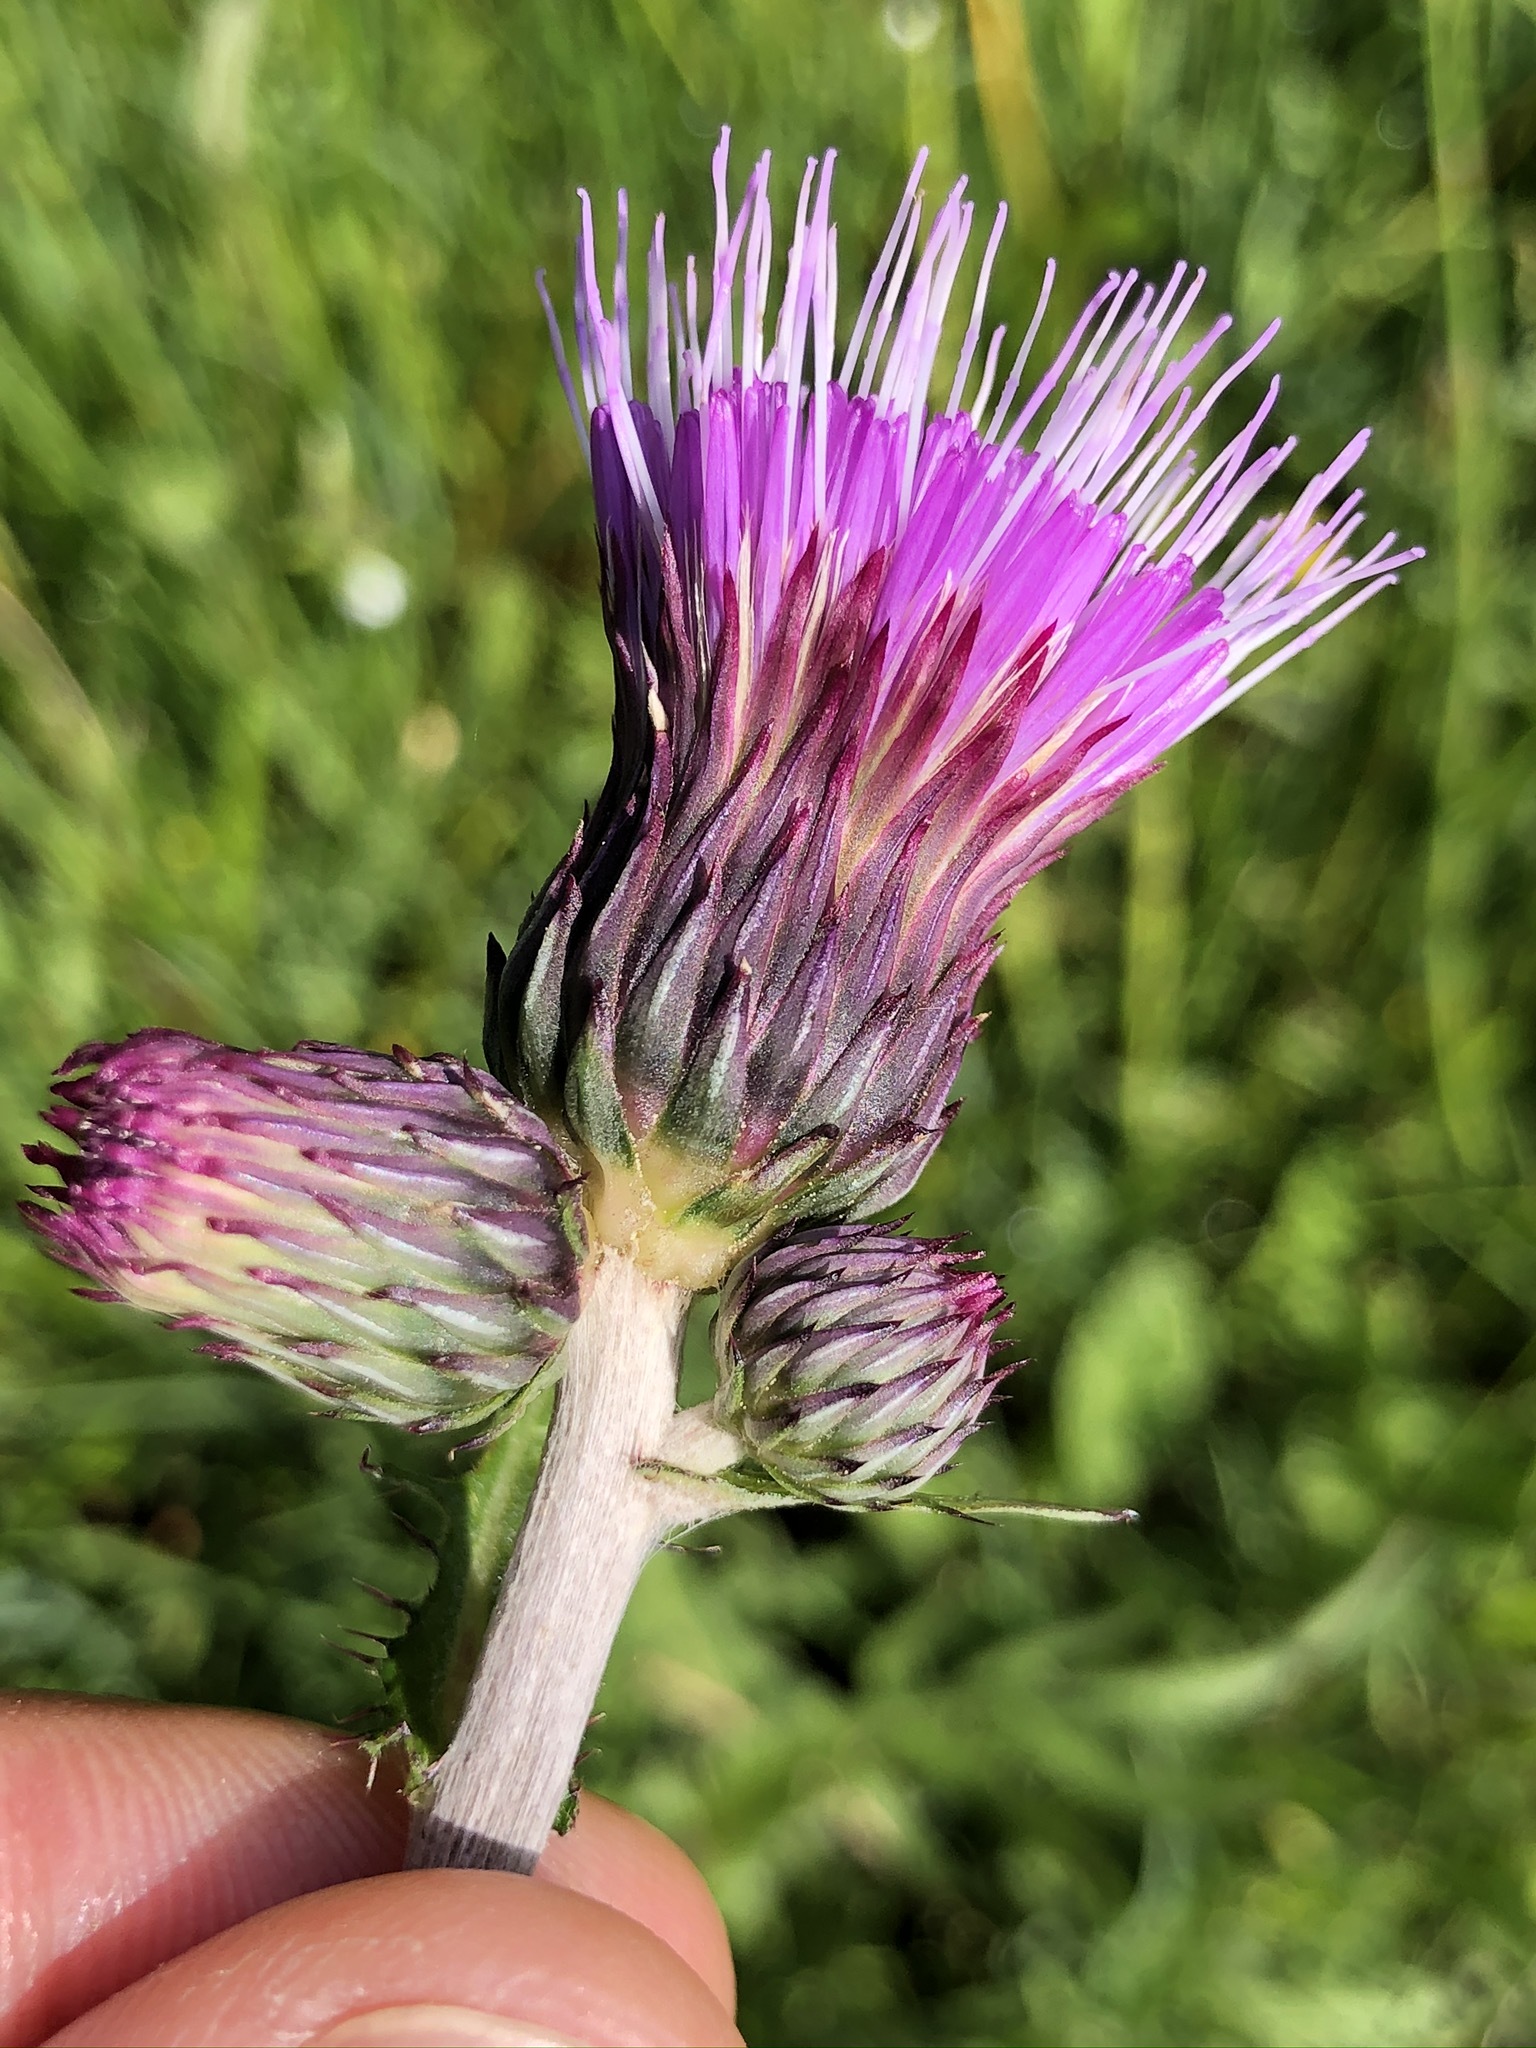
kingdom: Plantae
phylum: Tracheophyta
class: Magnoliopsida
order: Asterales
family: Asteraceae
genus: Cirsium
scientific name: Cirsium rivulare
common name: Brook thistle
